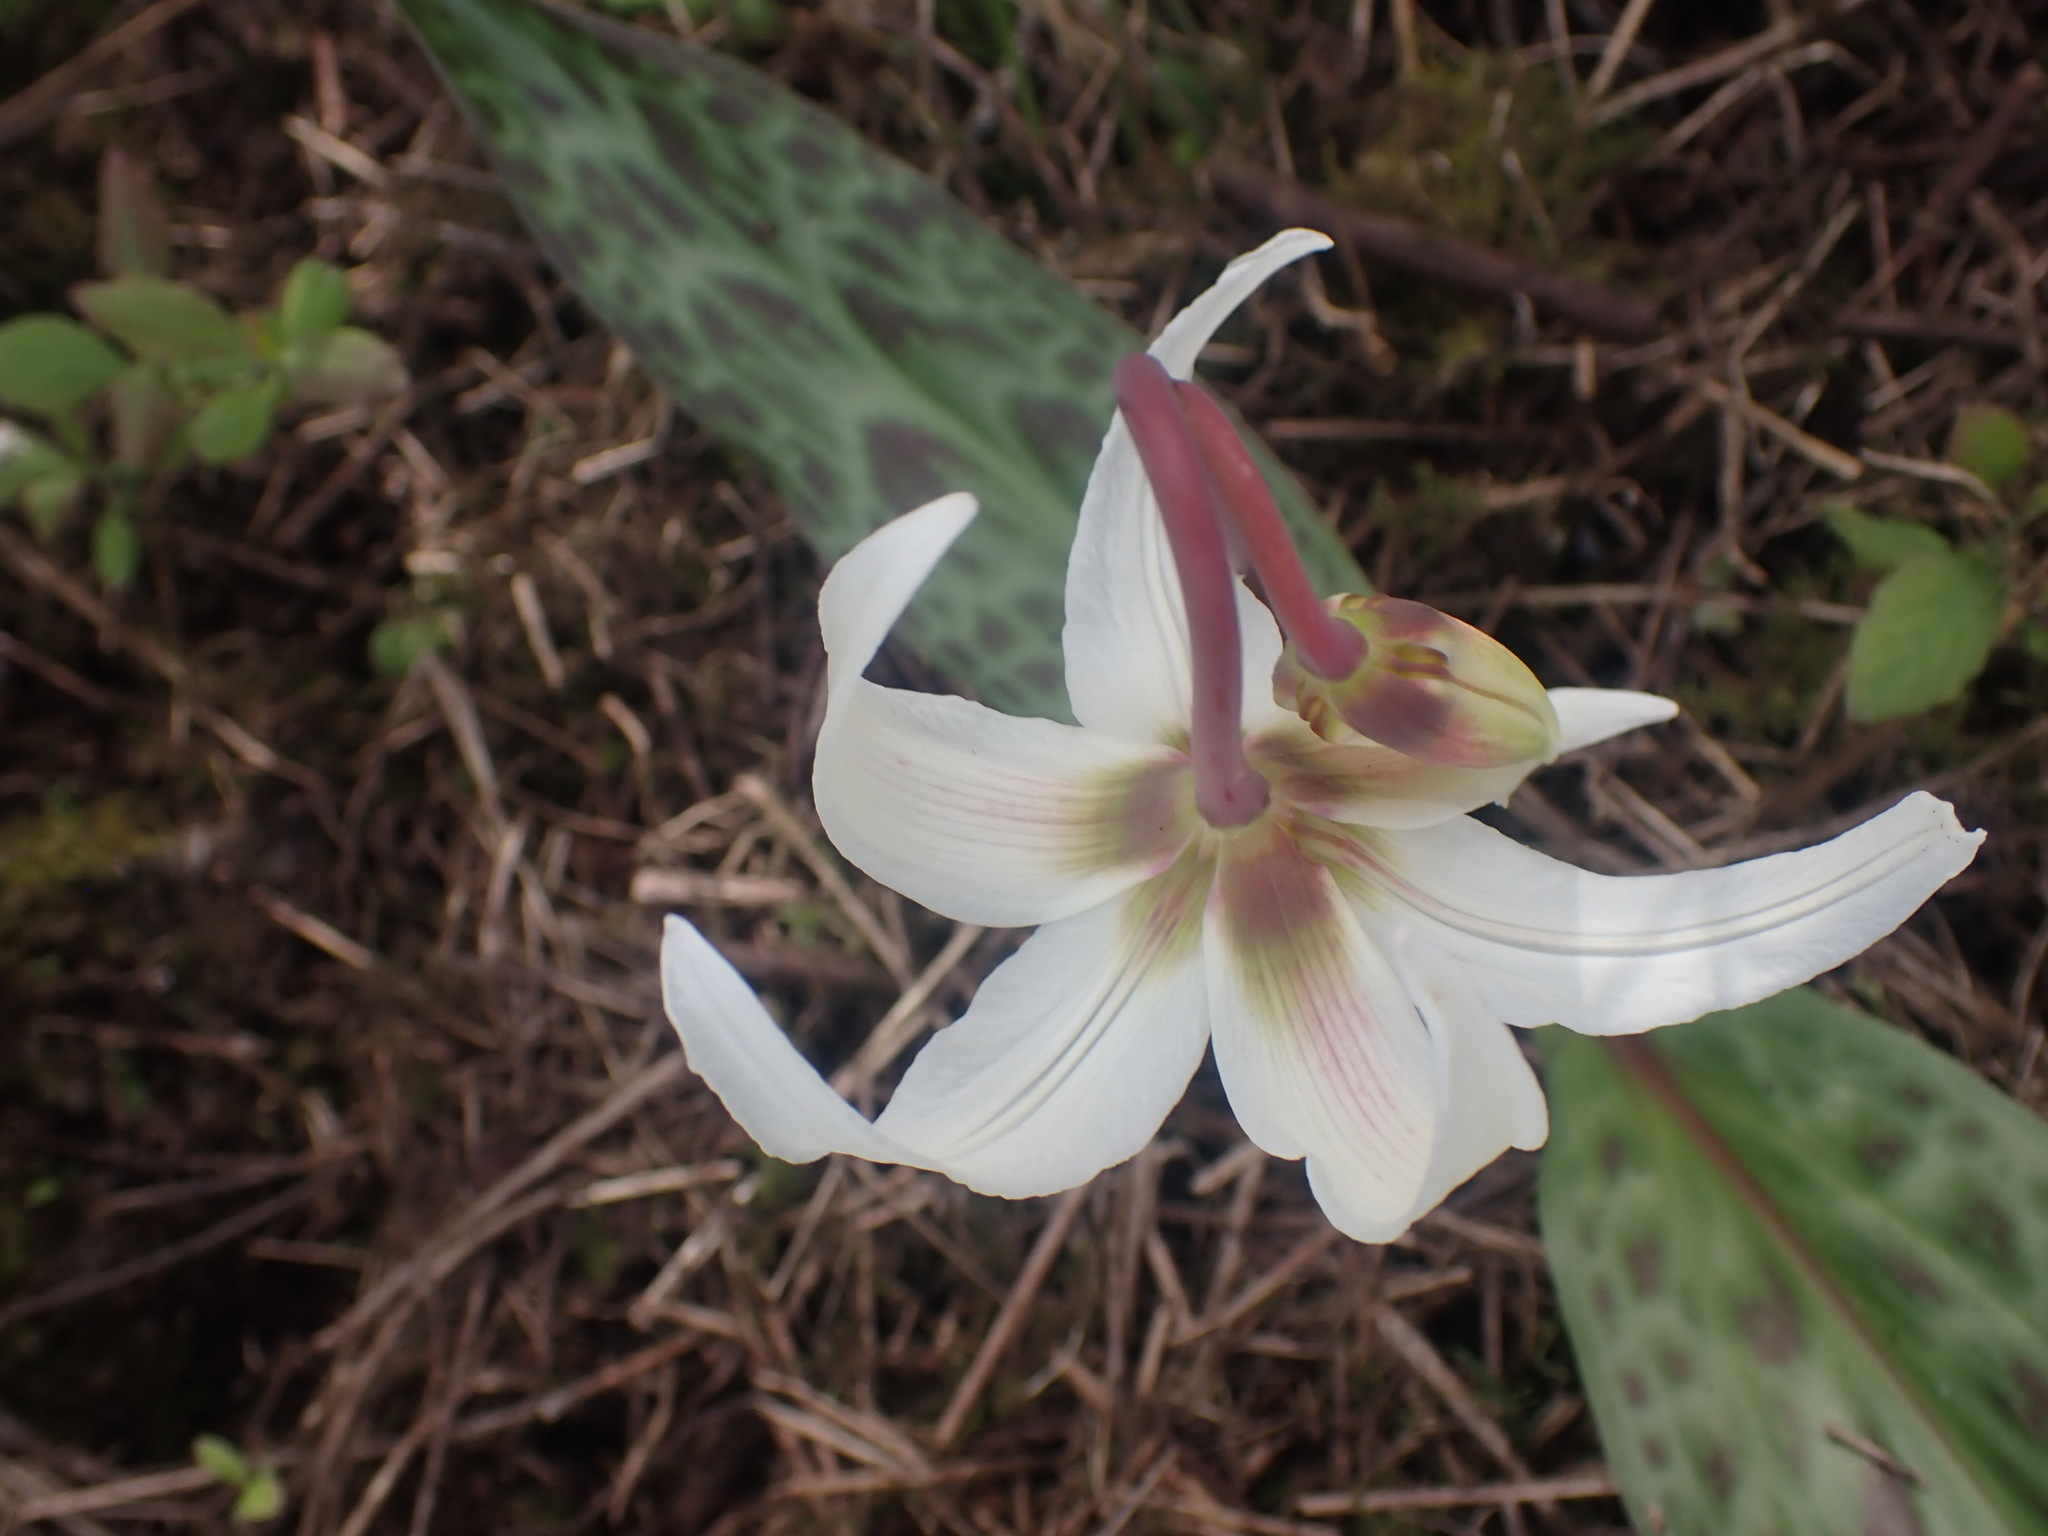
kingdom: Plantae
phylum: Tracheophyta
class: Liliopsida
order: Liliales
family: Liliaceae
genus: Erythronium
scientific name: Erythronium oregonum
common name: Giant adder's-tongue
